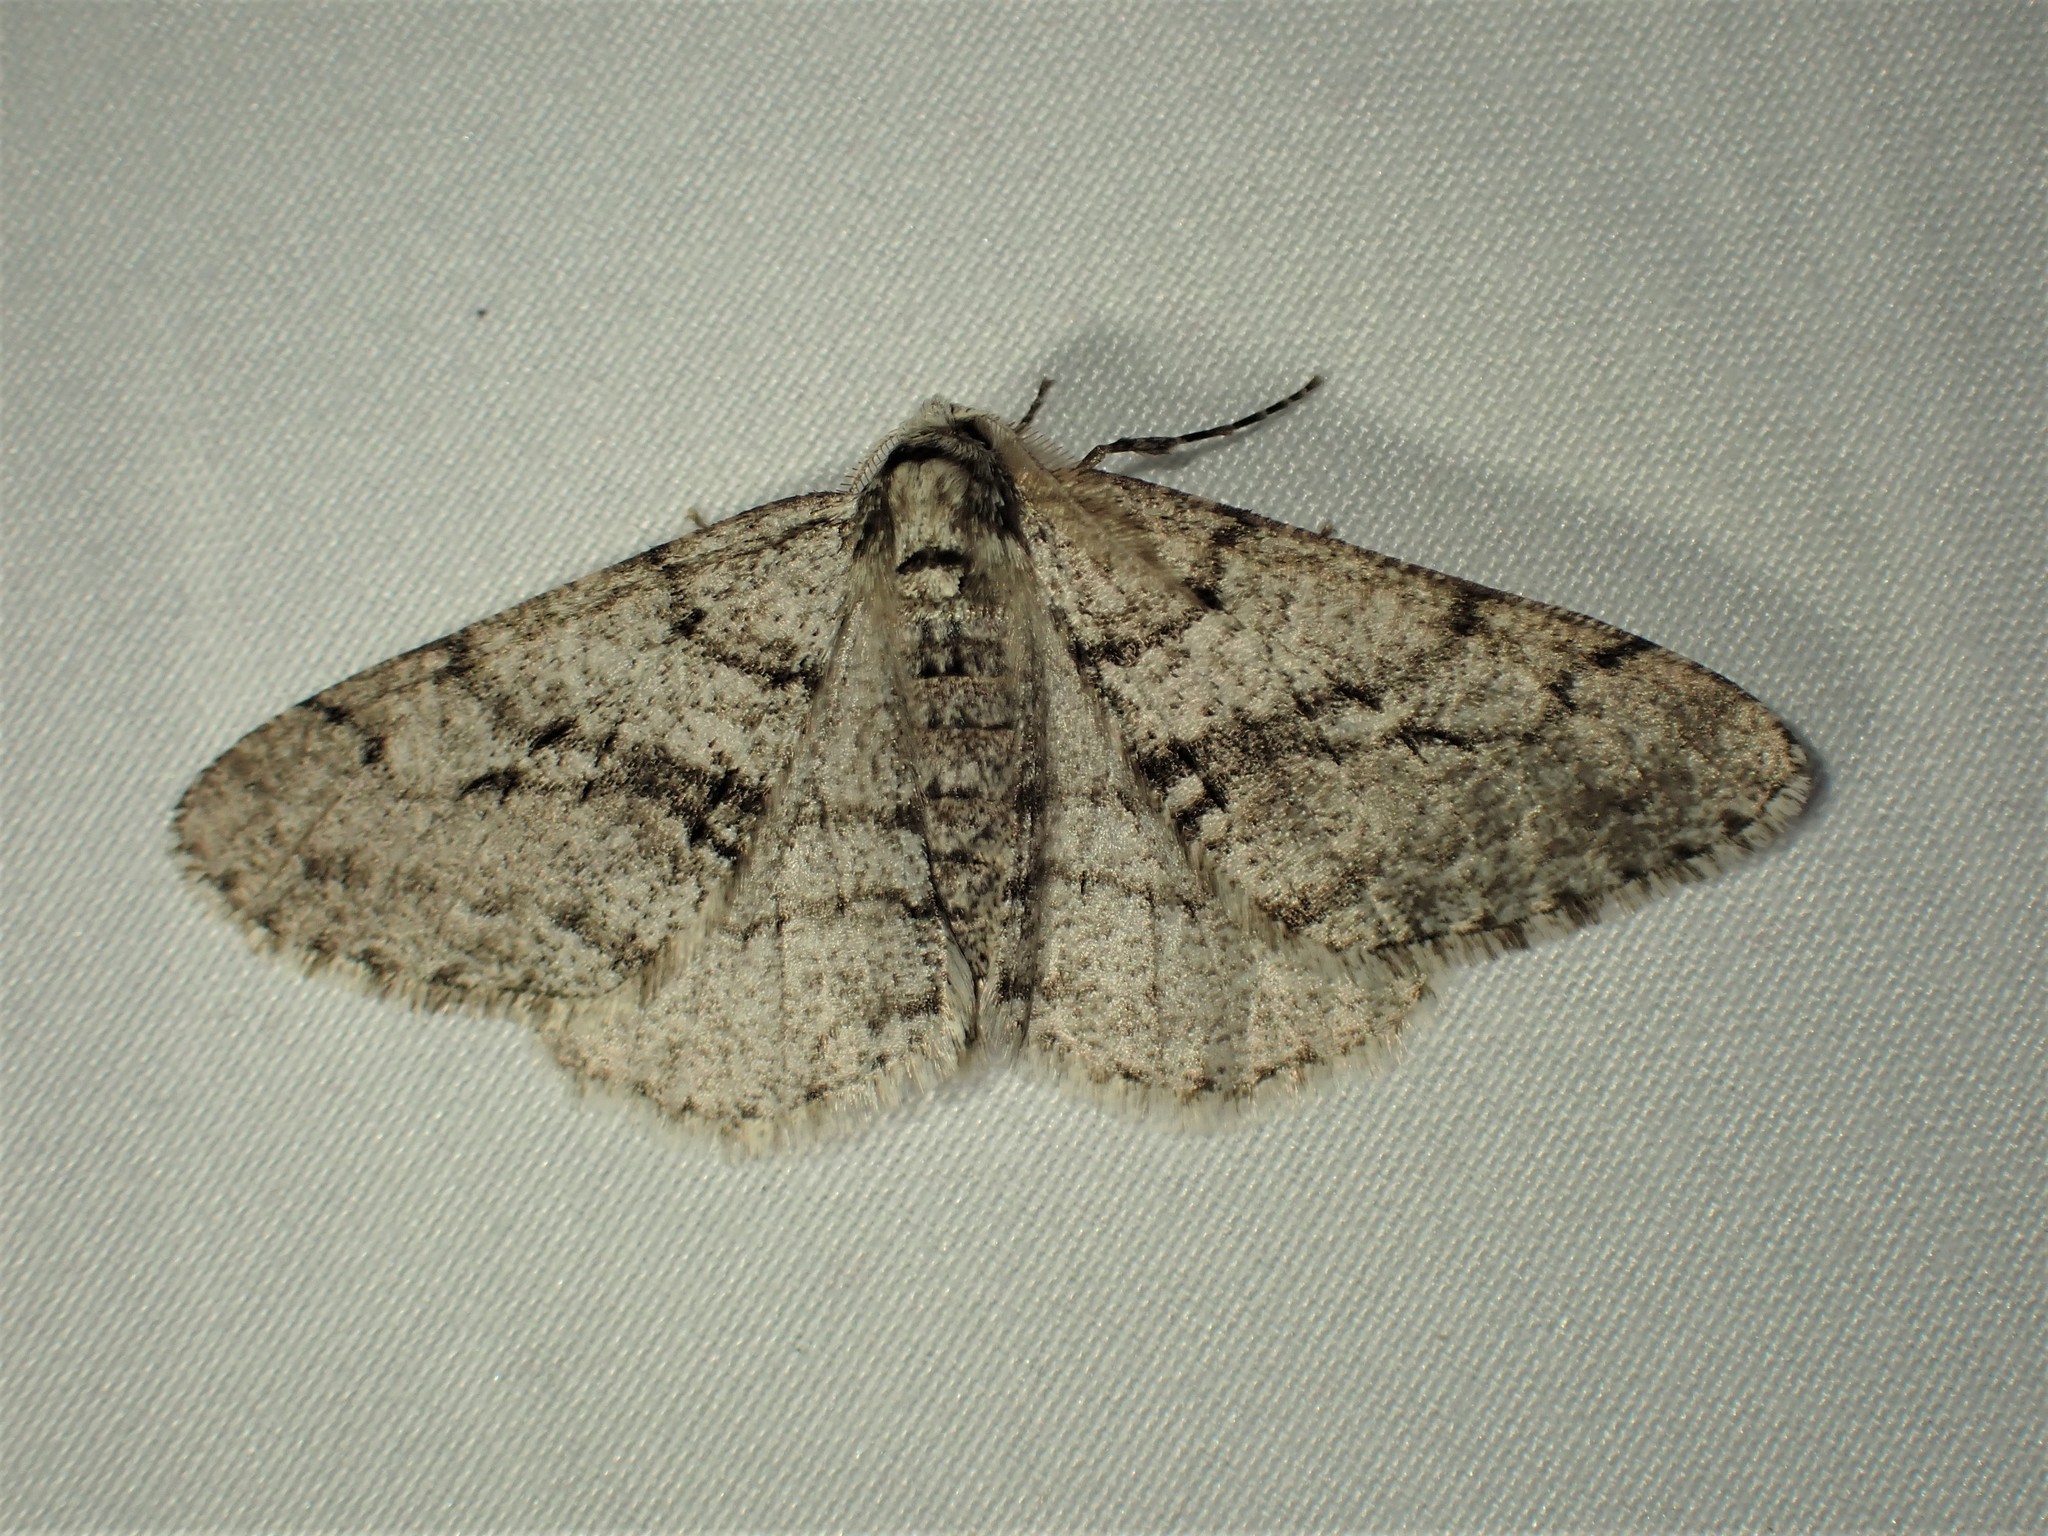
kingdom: Animalia
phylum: Arthropoda
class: Insecta
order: Lepidoptera
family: Geometridae
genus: Phigalia
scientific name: Phigalia titea
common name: Spiny looper
